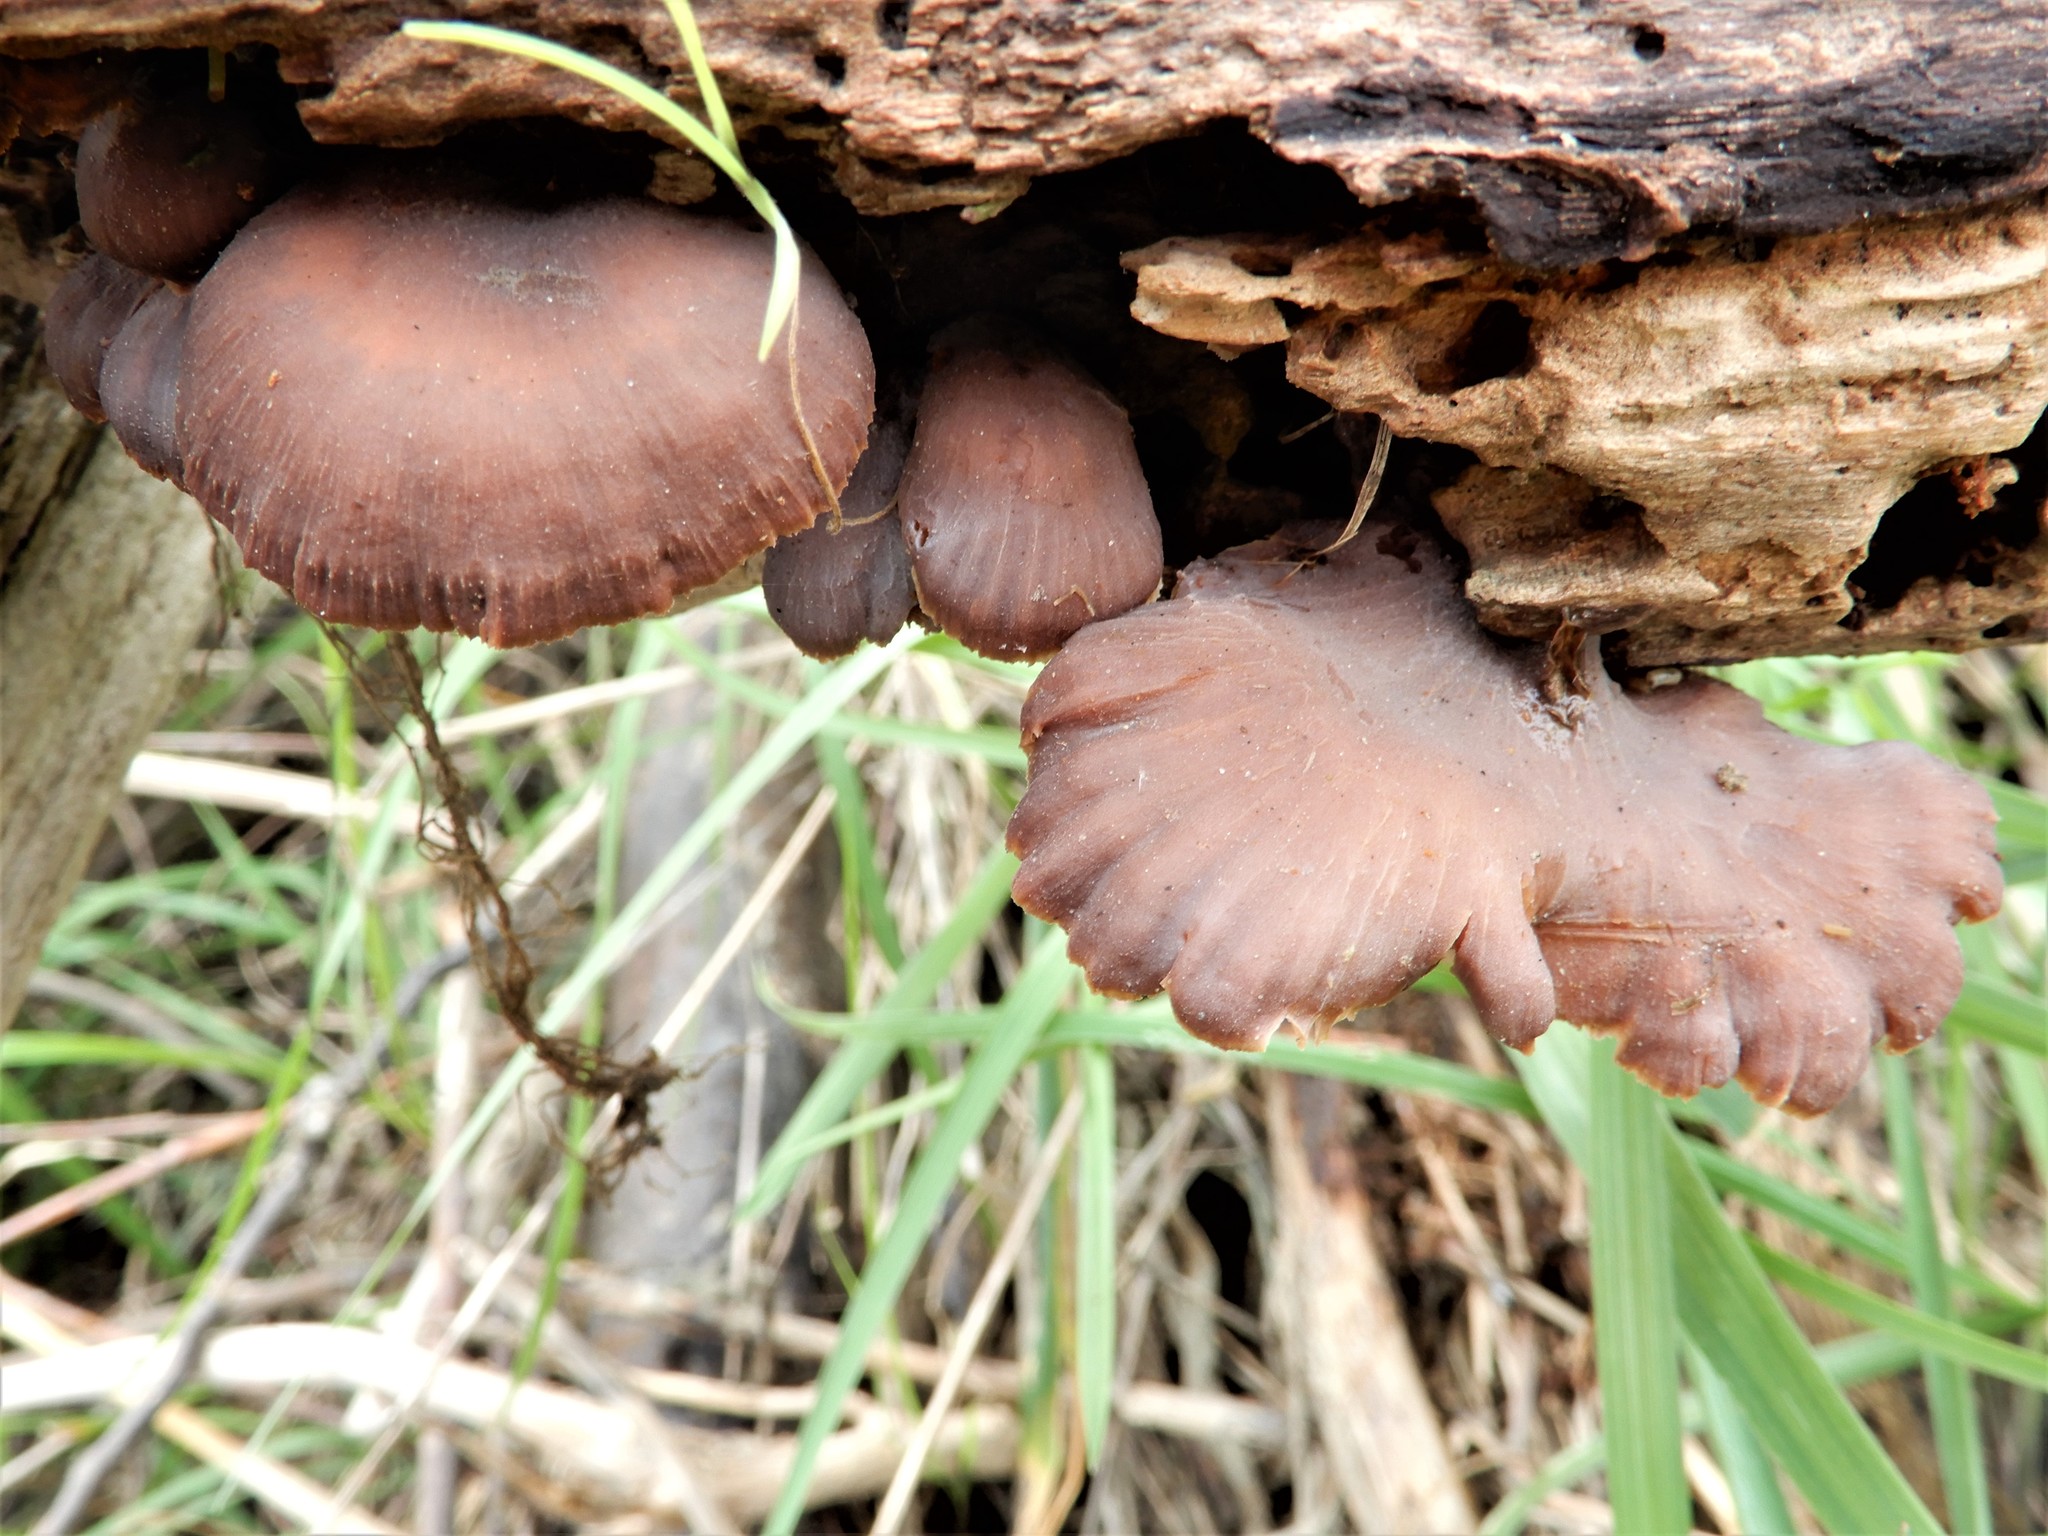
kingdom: Fungi
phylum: Basidiomycota
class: Agaricomycetes
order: Russulales
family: Auriscalpiaceae
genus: Lentinellus
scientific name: Lentinellus subargillaceus
